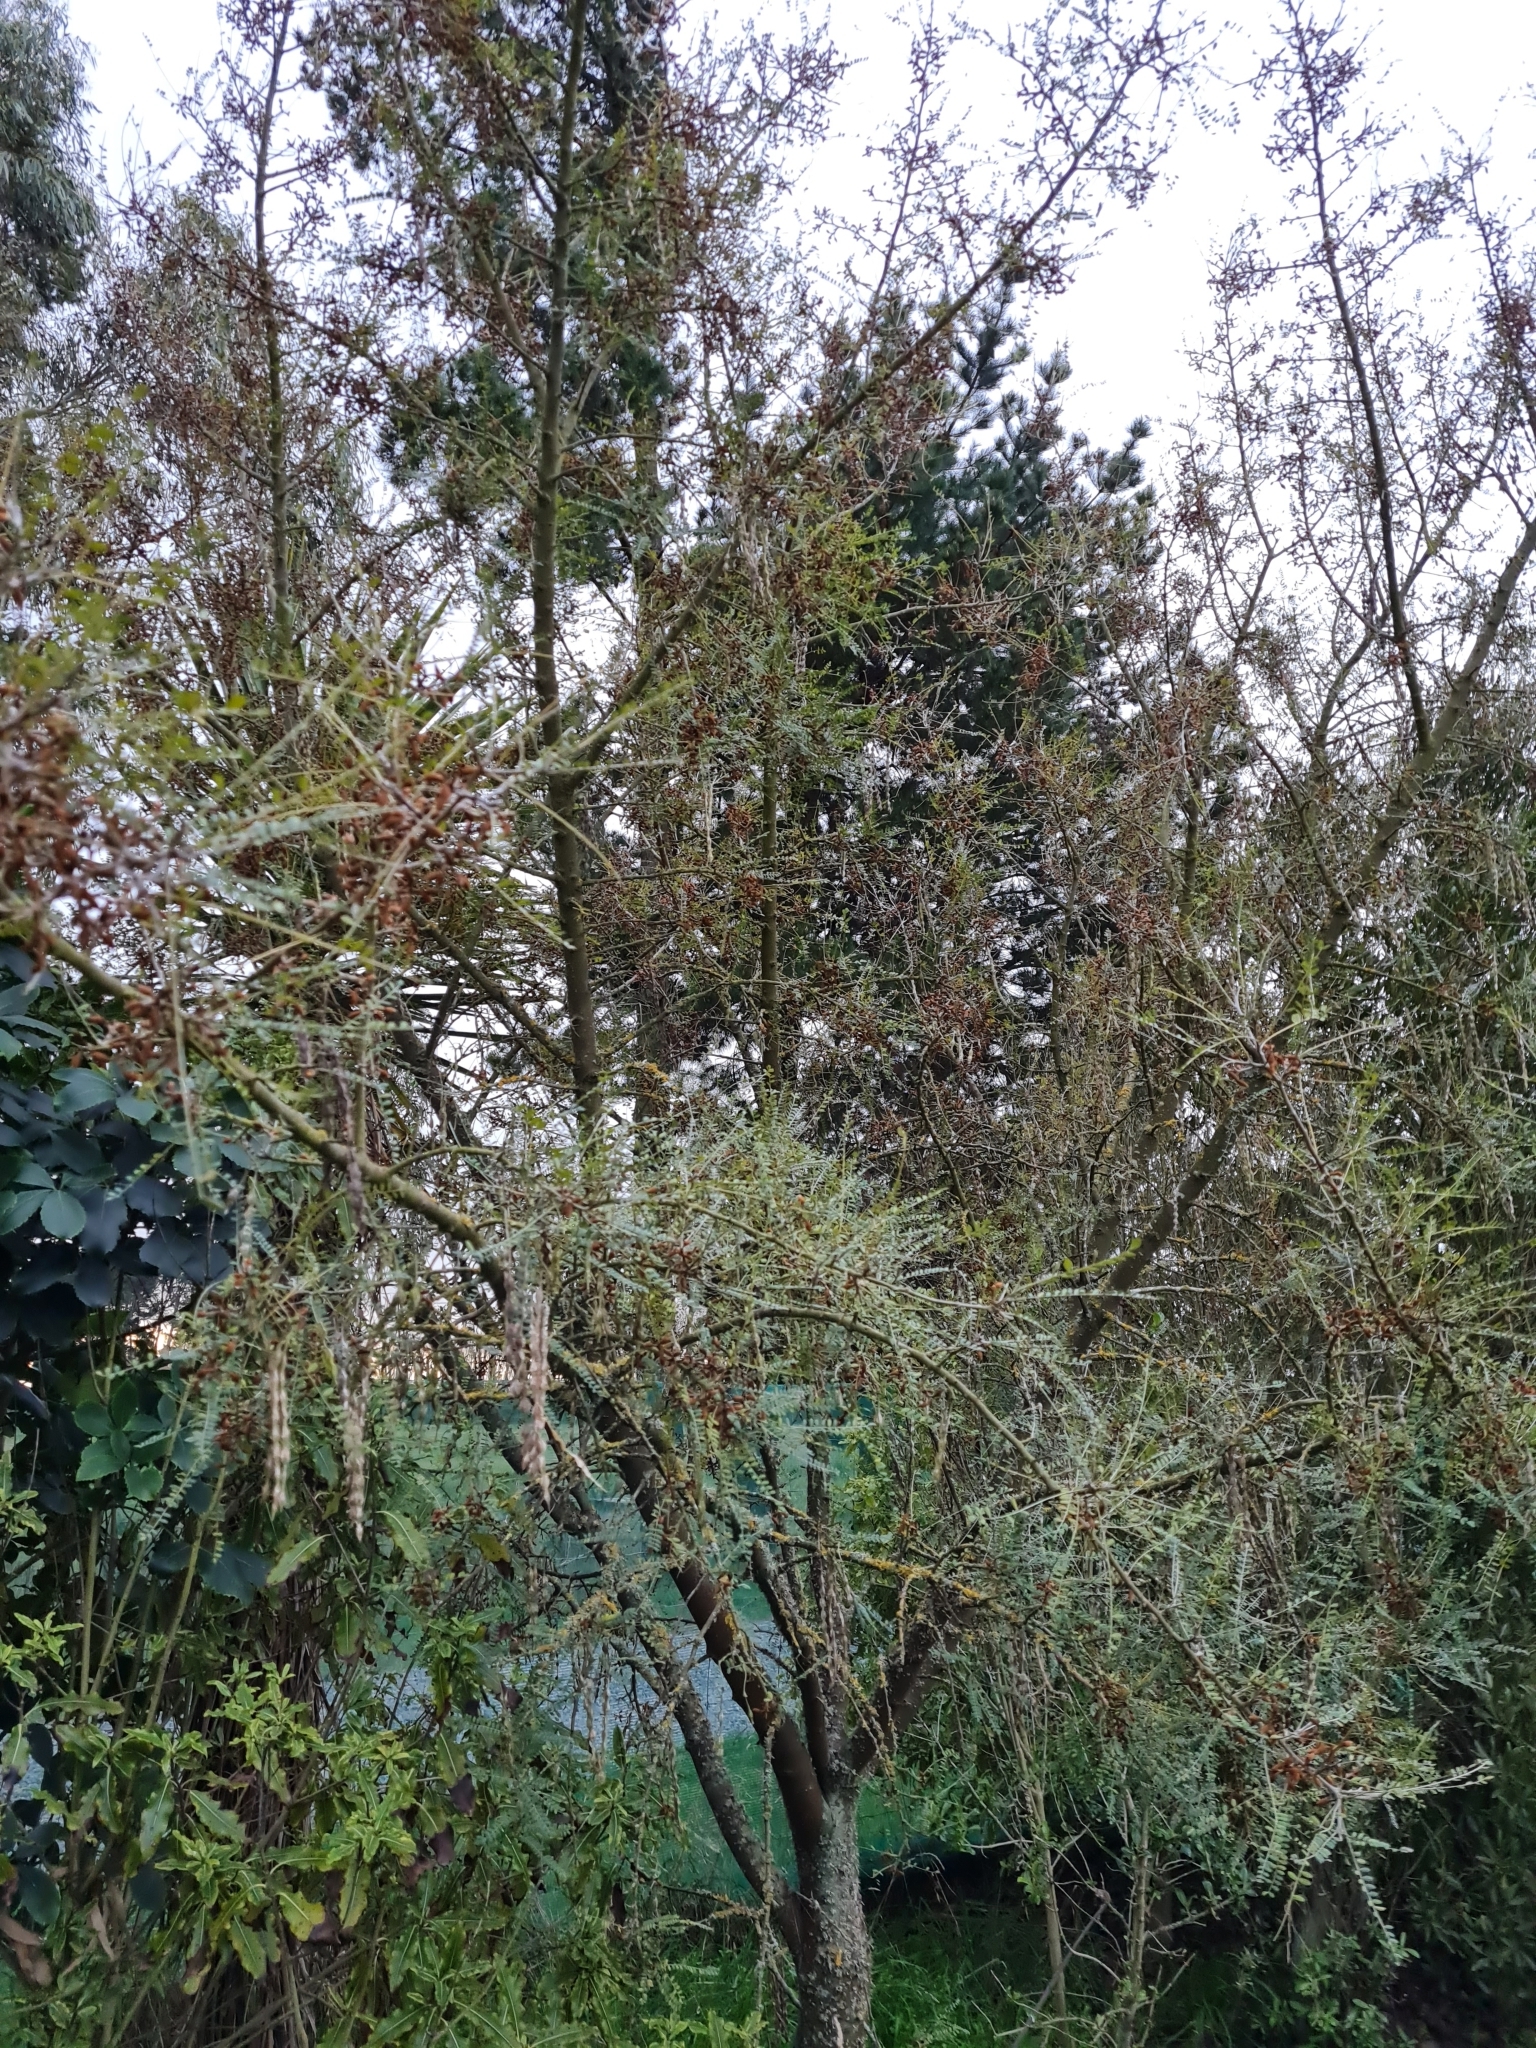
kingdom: Plantae
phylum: Tracheophyta
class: Magnoliopsida
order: Fabales
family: Fabaceae
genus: Sophora
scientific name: Sophora microphylla
